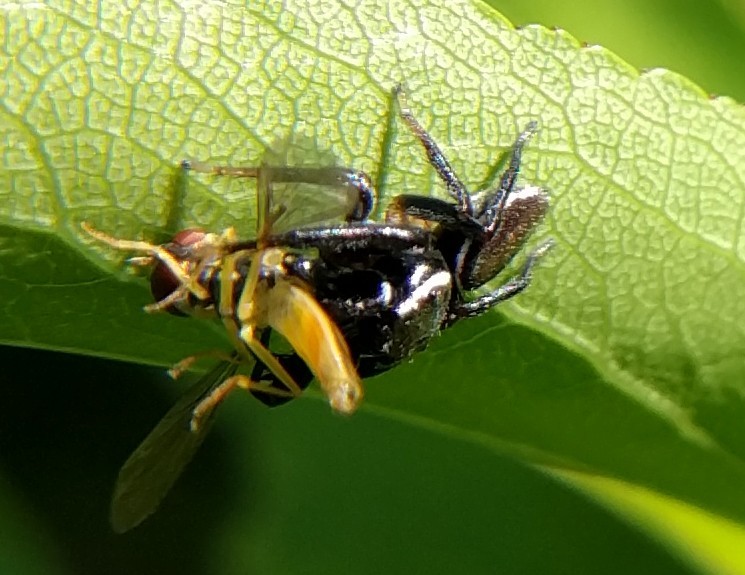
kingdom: Animalia
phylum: Arthropoda
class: Arachnida
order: Araneae
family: Salticidae
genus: Messua
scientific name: Messua limbata
